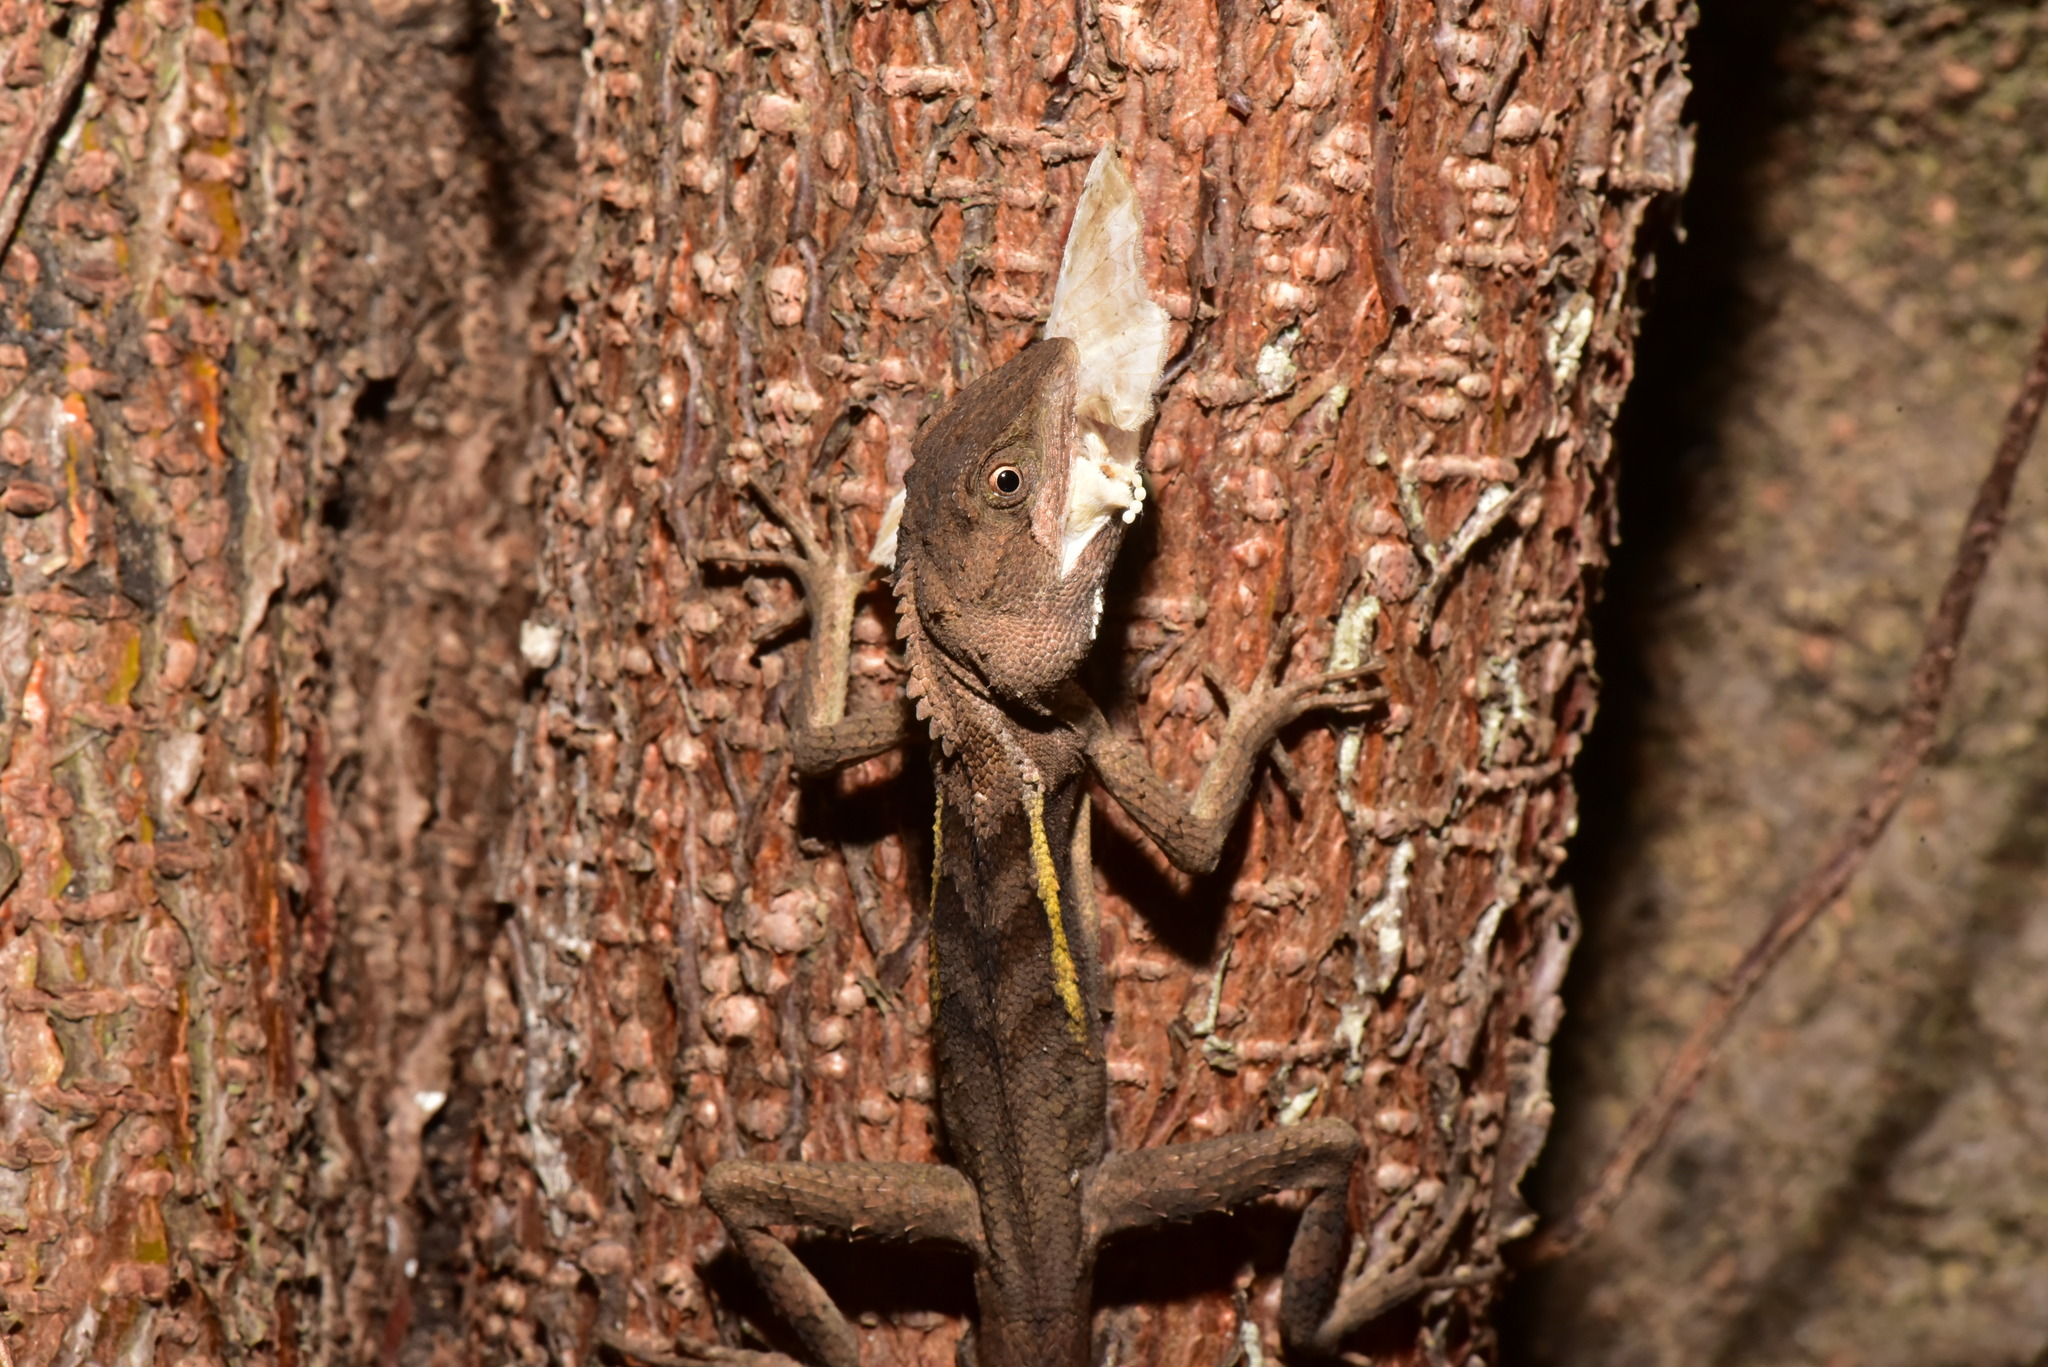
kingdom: Animalia
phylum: Chordata
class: Squamata
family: Agamidae
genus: Diploderma
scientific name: Diploderma swinhonis
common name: Taiwan japalure
